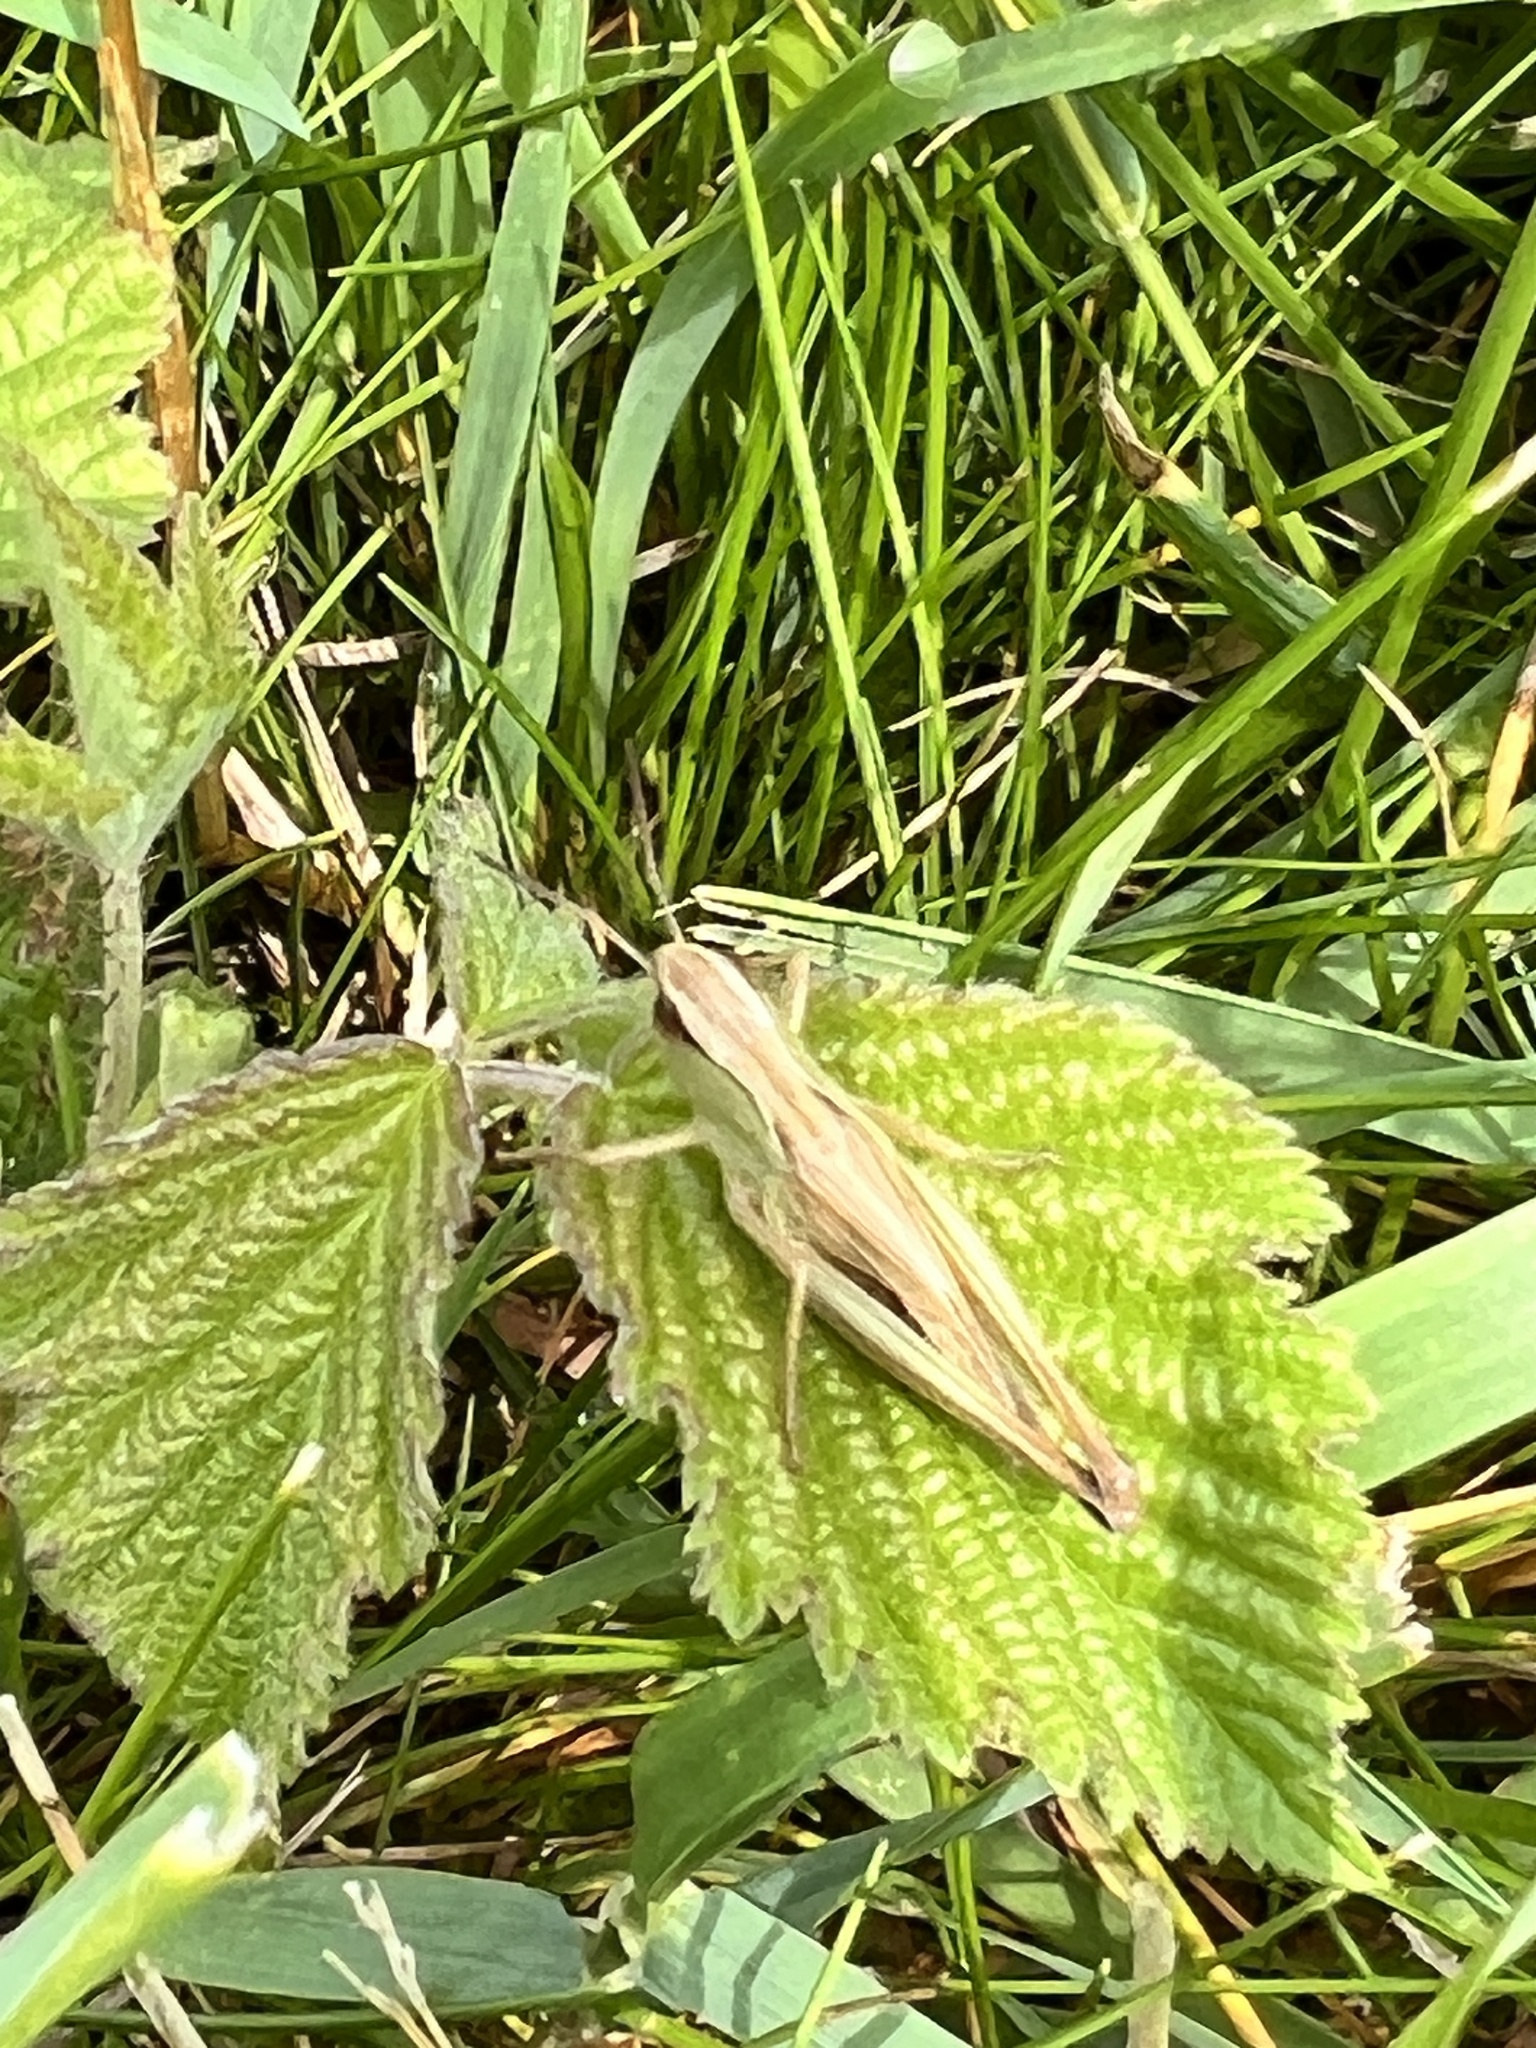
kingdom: Animalia
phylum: Arthropoda
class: Insecta
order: Orthoptera
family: Acrididae
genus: Pseudochorthippus
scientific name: Pseudochorthippus parallelus
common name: Meadow grasshopper
